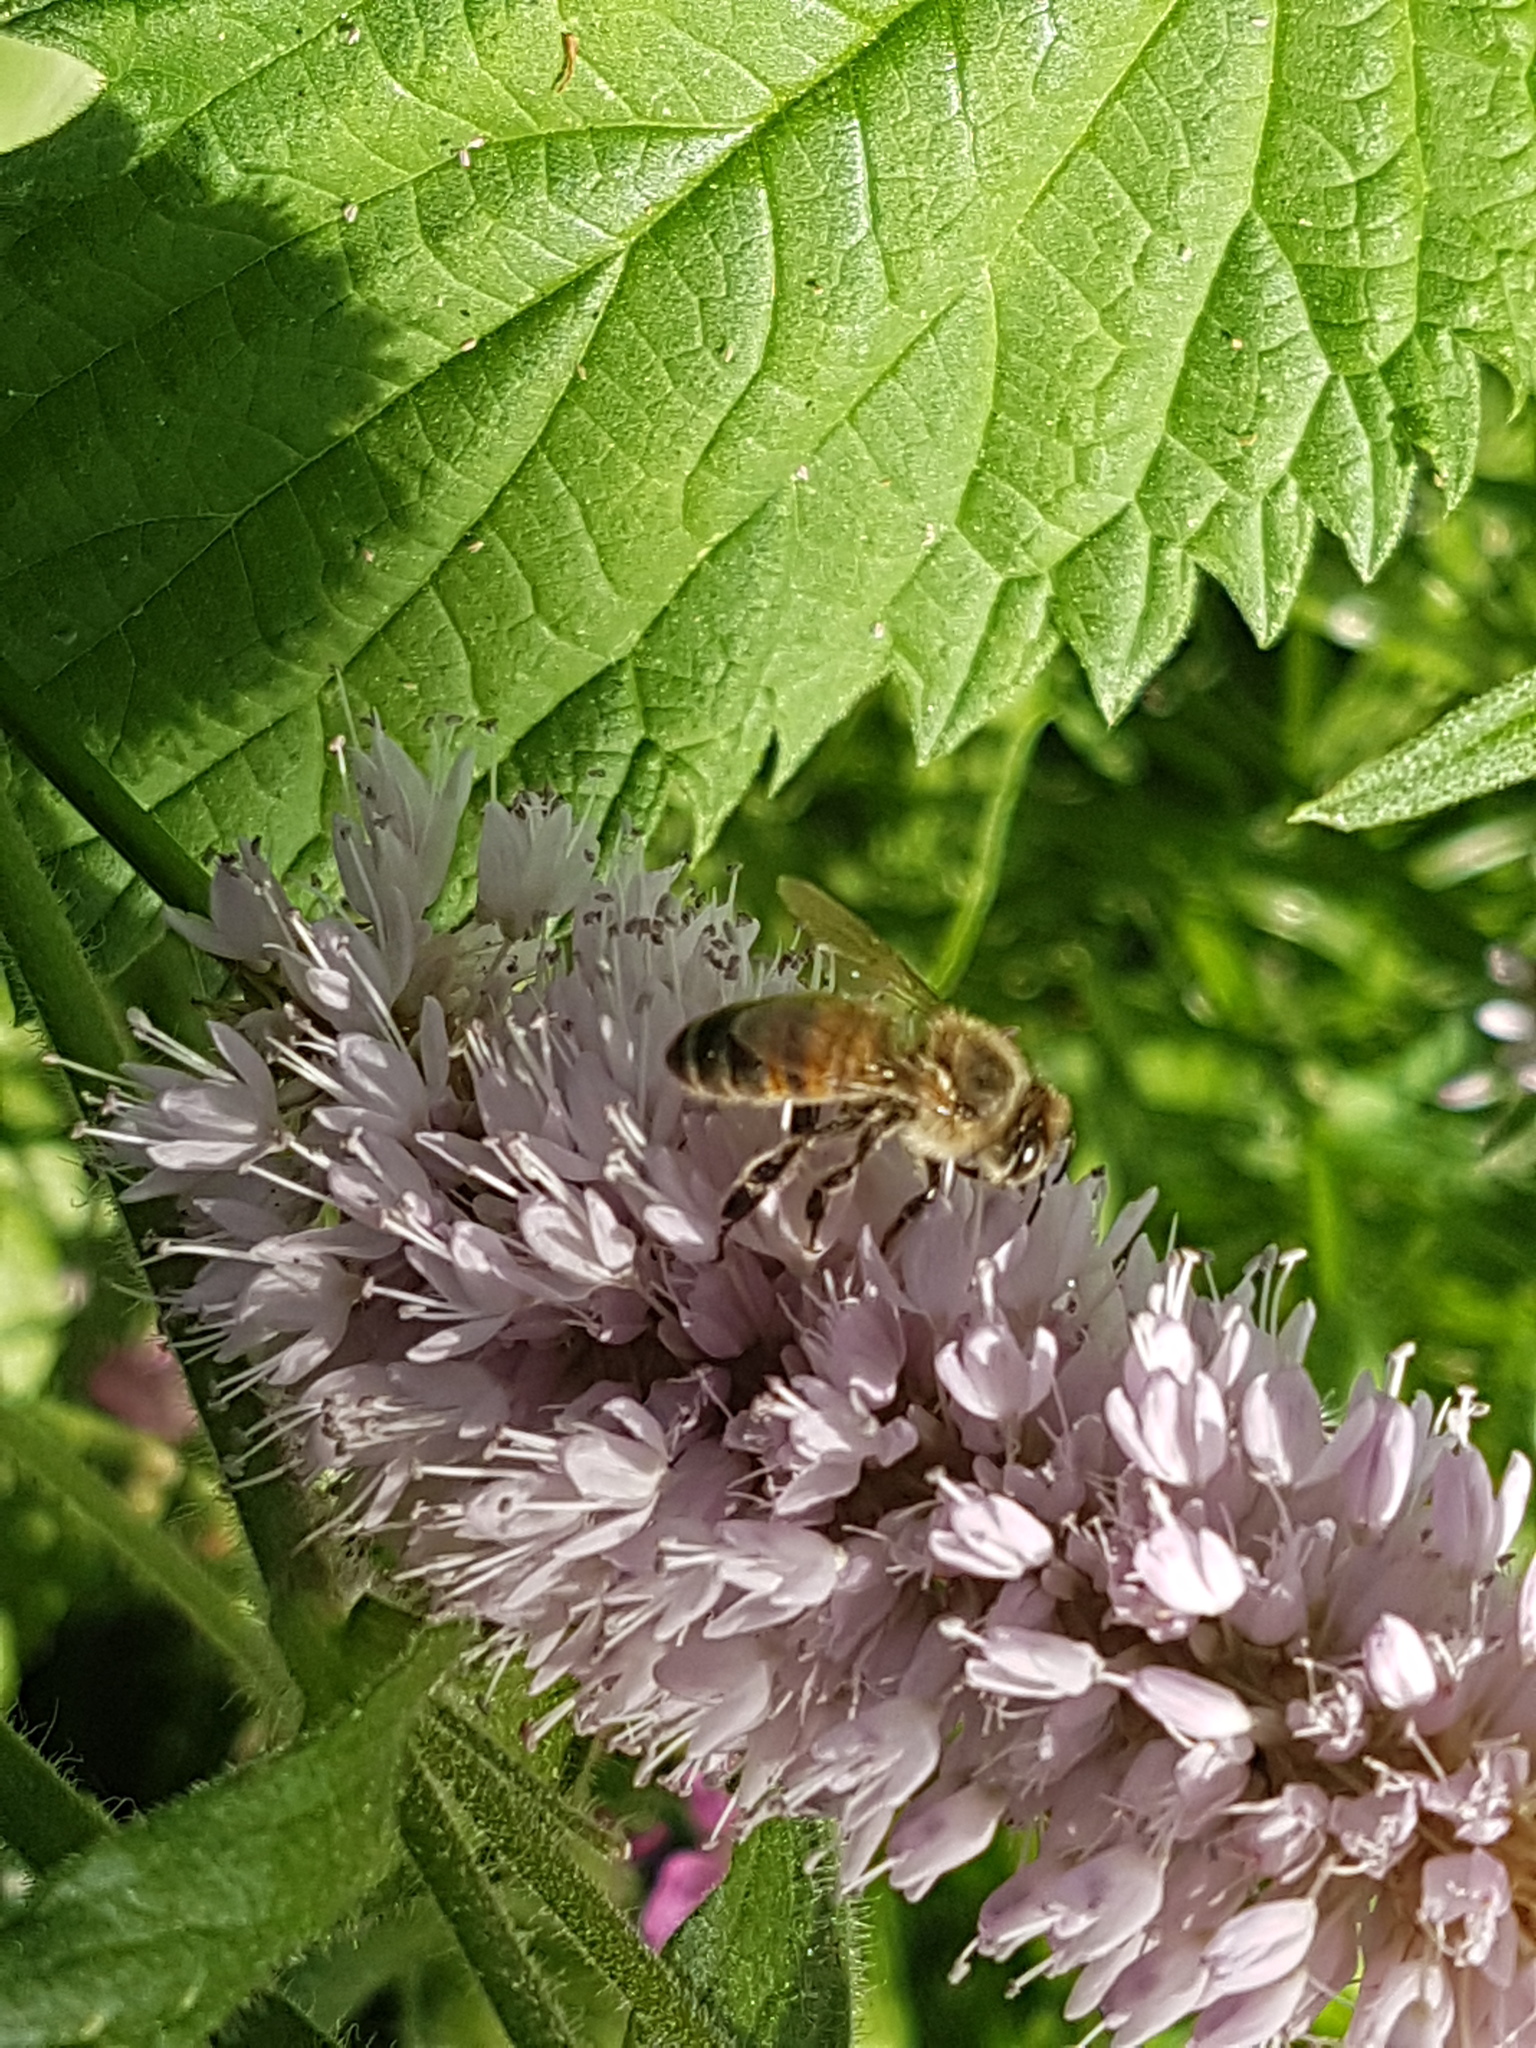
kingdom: Animalia
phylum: Arthropoda
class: Insecta
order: Hymenoptera
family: Apidae
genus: Apis
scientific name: Apis mellifera
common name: Honey bee
